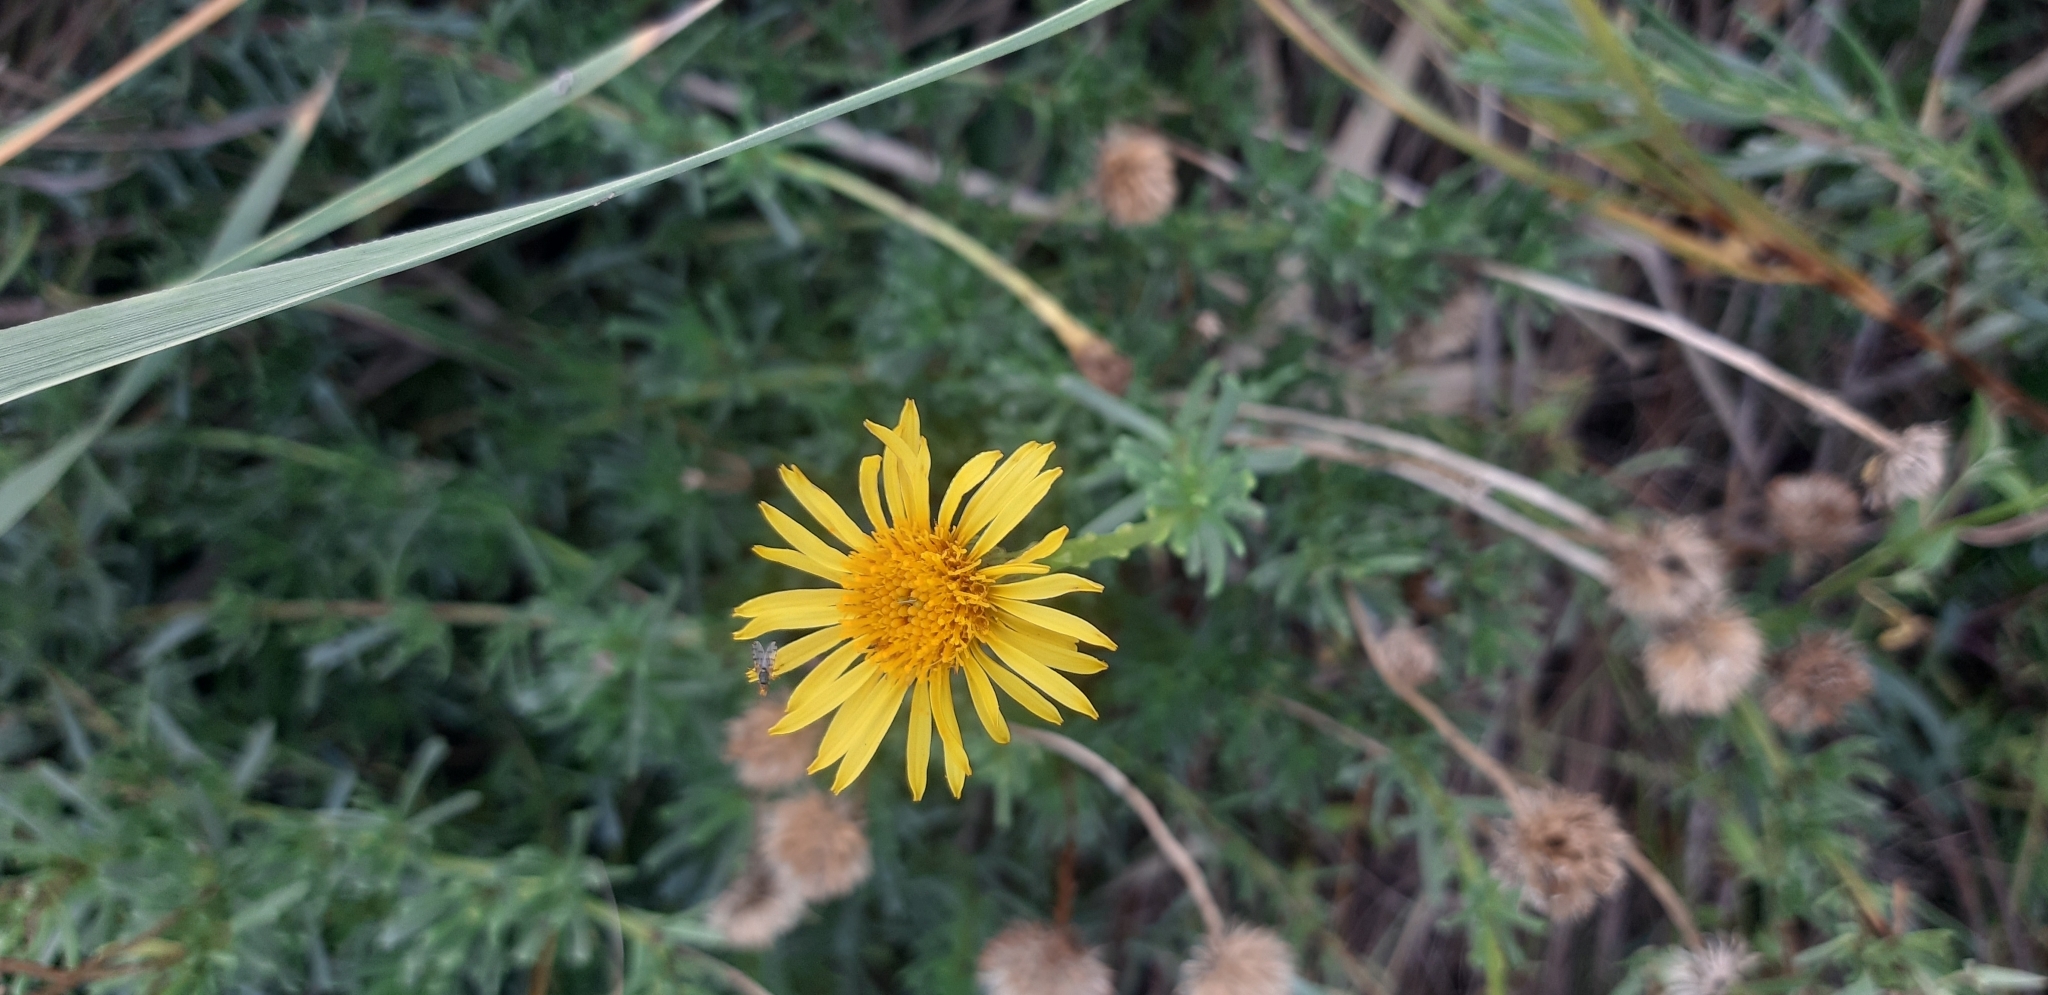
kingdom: Plantae
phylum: Tracheophyta
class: Magnoliopsida
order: Asterales
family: Asteraceae
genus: Limbarda
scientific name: Limbarda crithmoides
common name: Golden samphire
